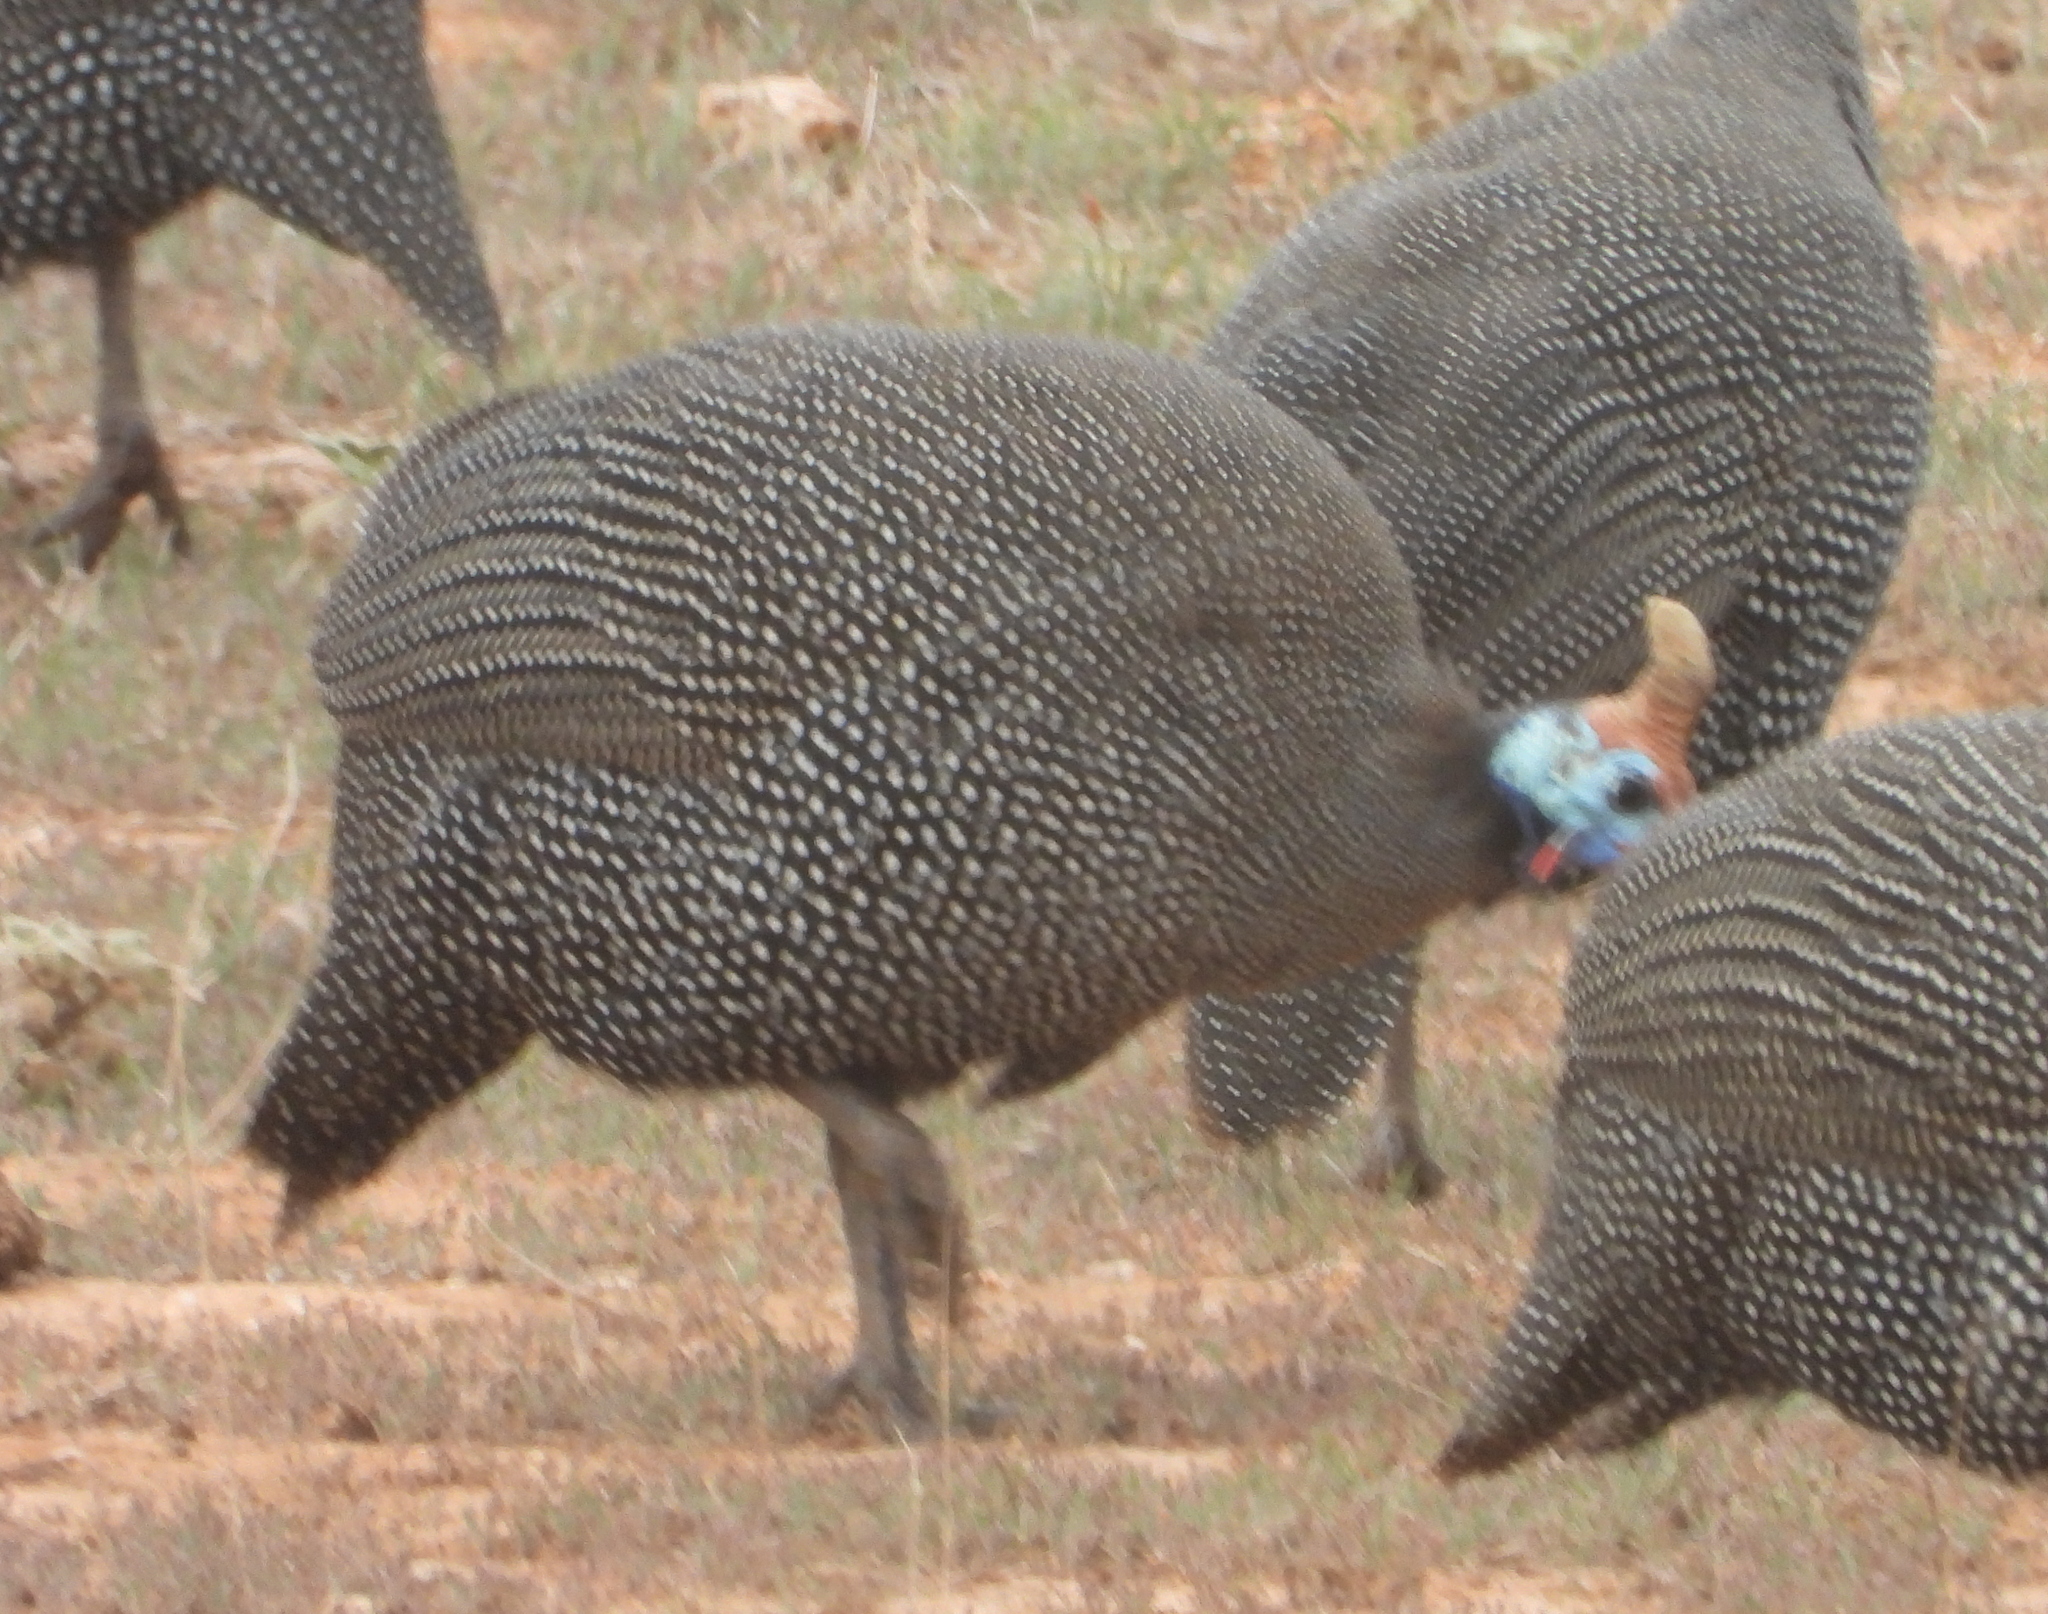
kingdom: Animalia
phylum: Chordata
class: Aves
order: Galliformes
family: Numididae
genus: Numida
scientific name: Numida meleagris
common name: Helmeted guineafowl
